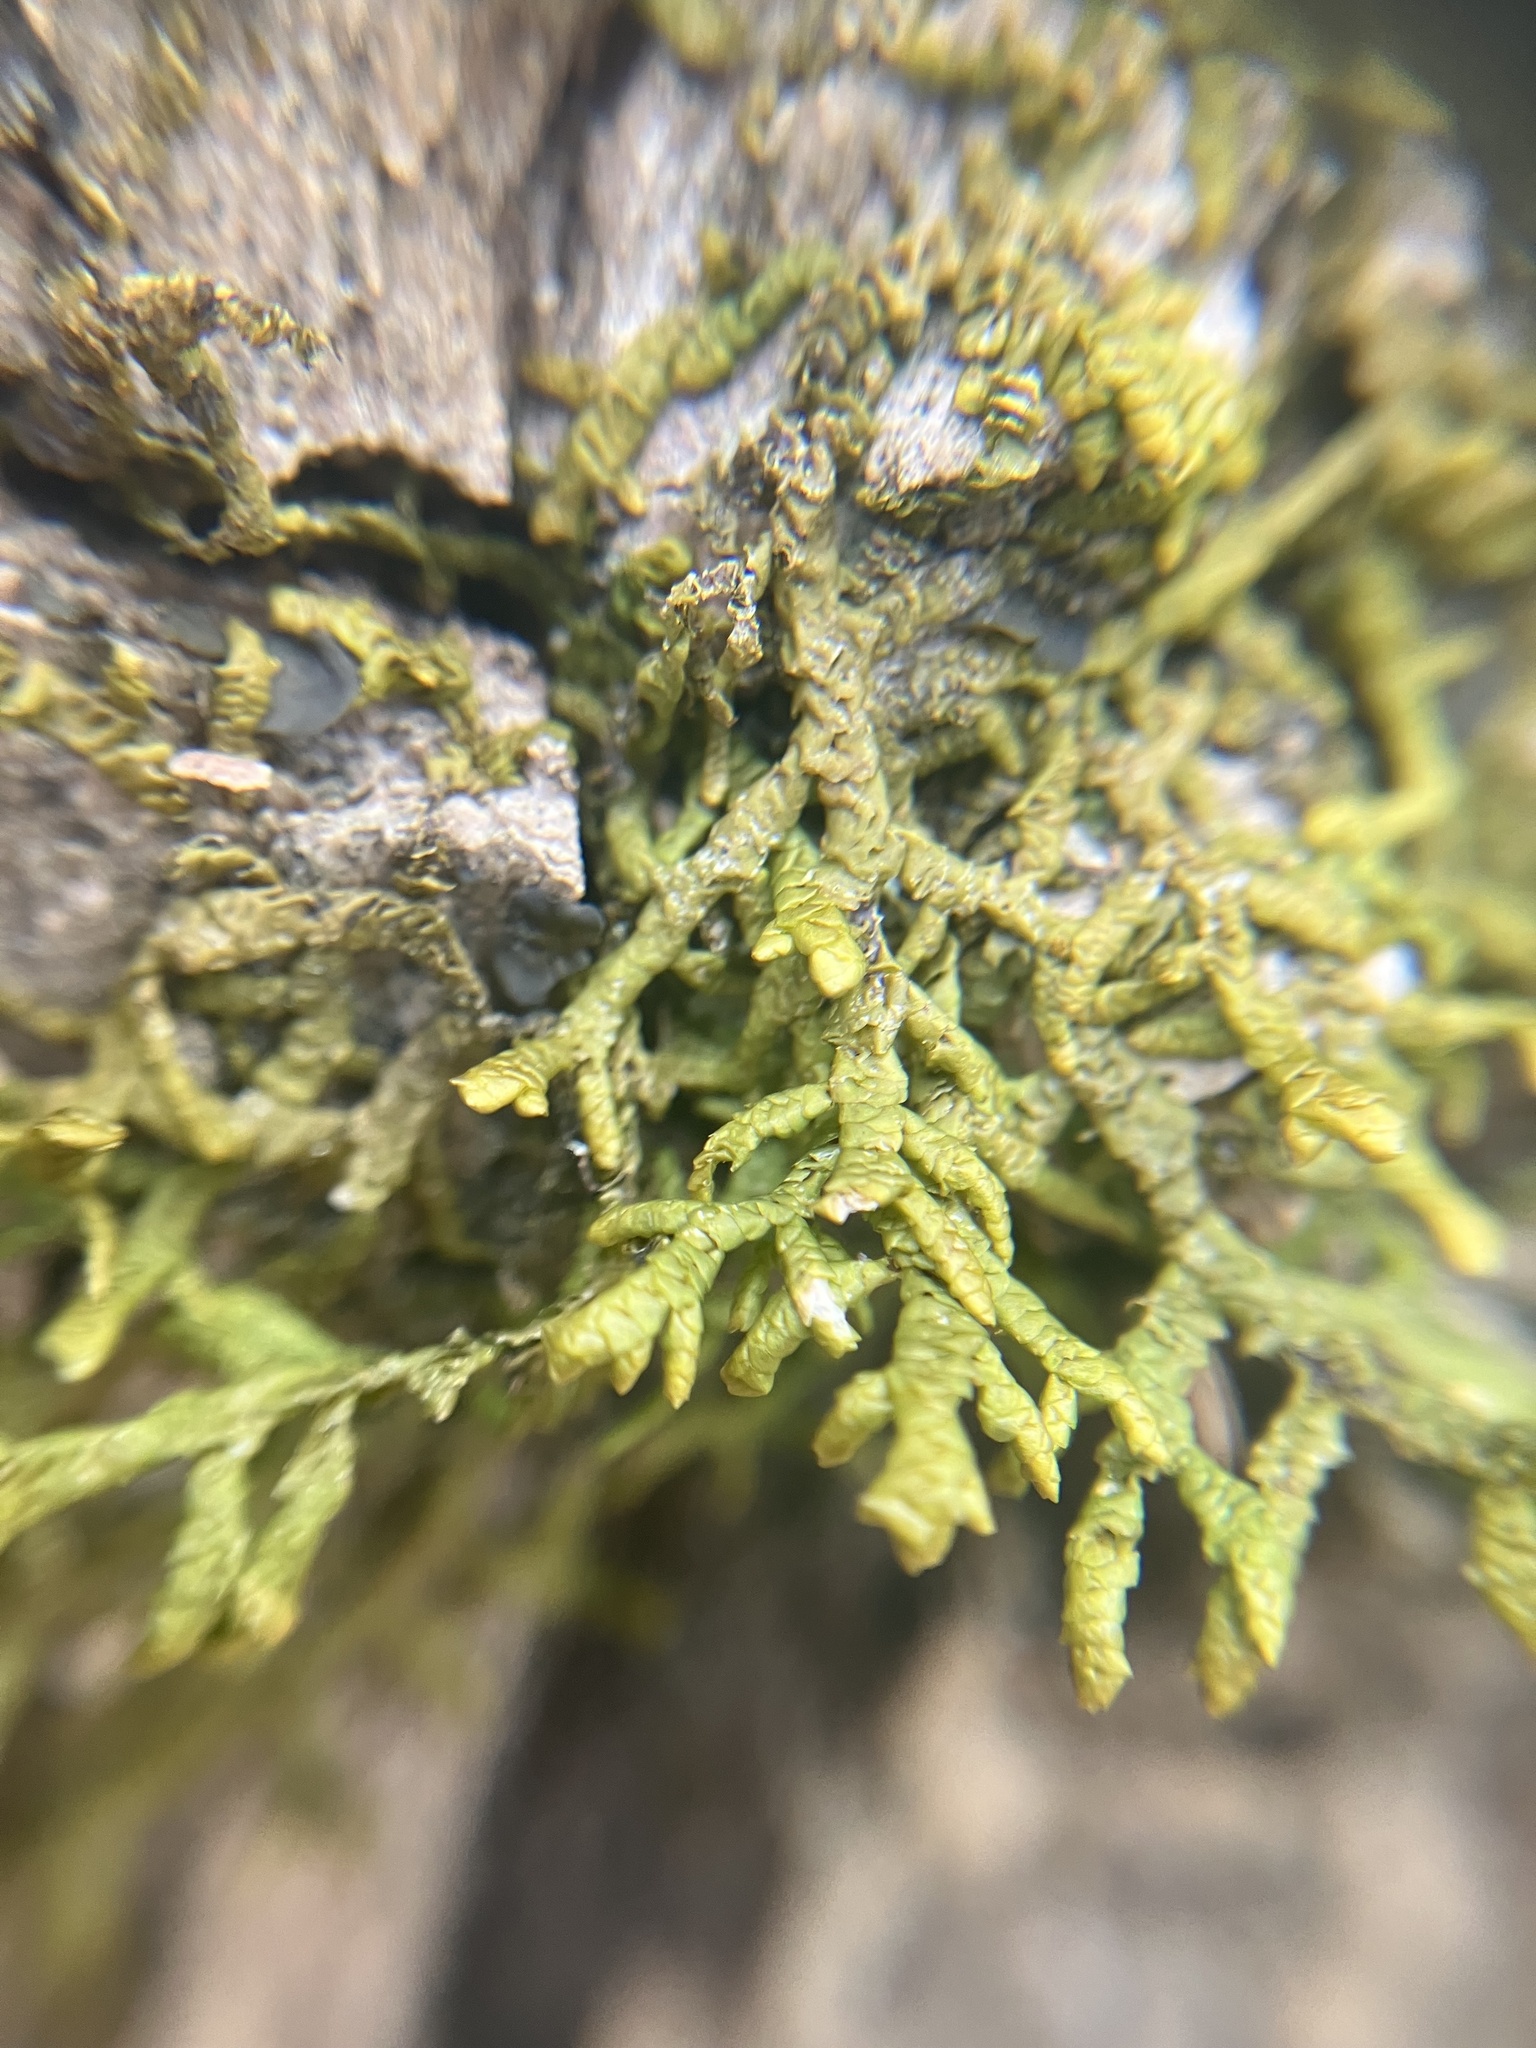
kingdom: Plantae
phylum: Marchantiophyta
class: Jungermanniopsida
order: Porellales
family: Porellaceae
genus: Porella
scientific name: Porella platyphylla
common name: Wall scalewort
